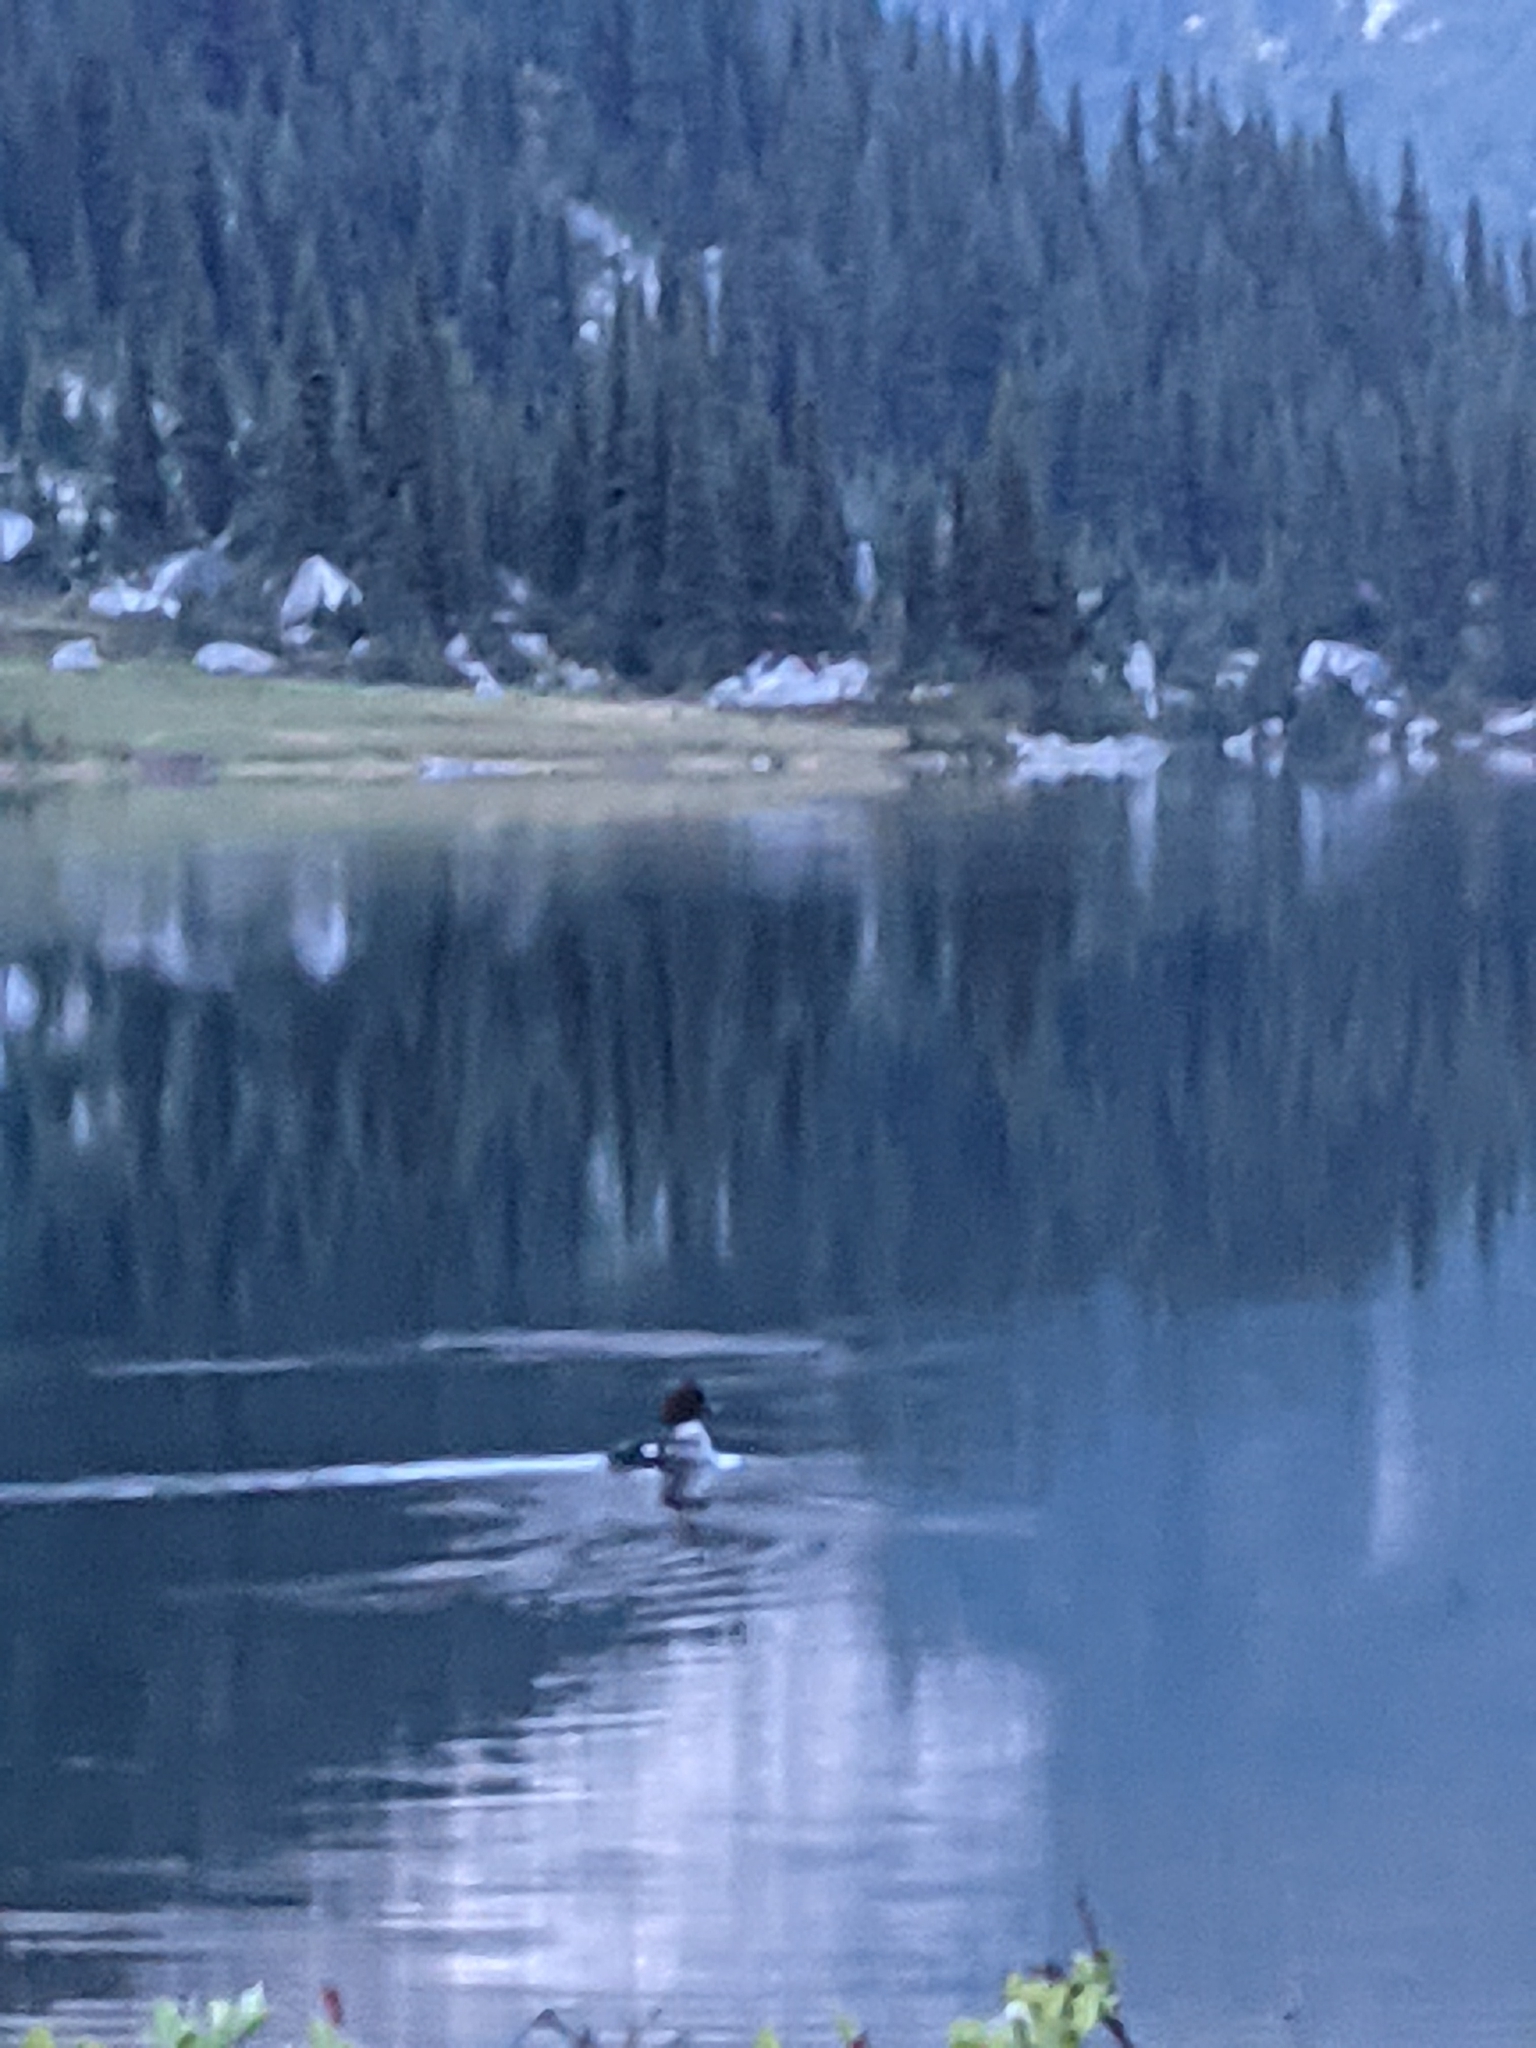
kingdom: Animalia
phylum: Chordata
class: Aves
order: Anseriformes
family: Anatidae
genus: Bucephala
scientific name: Bucephala islandica
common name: Barrow's goldeneye
